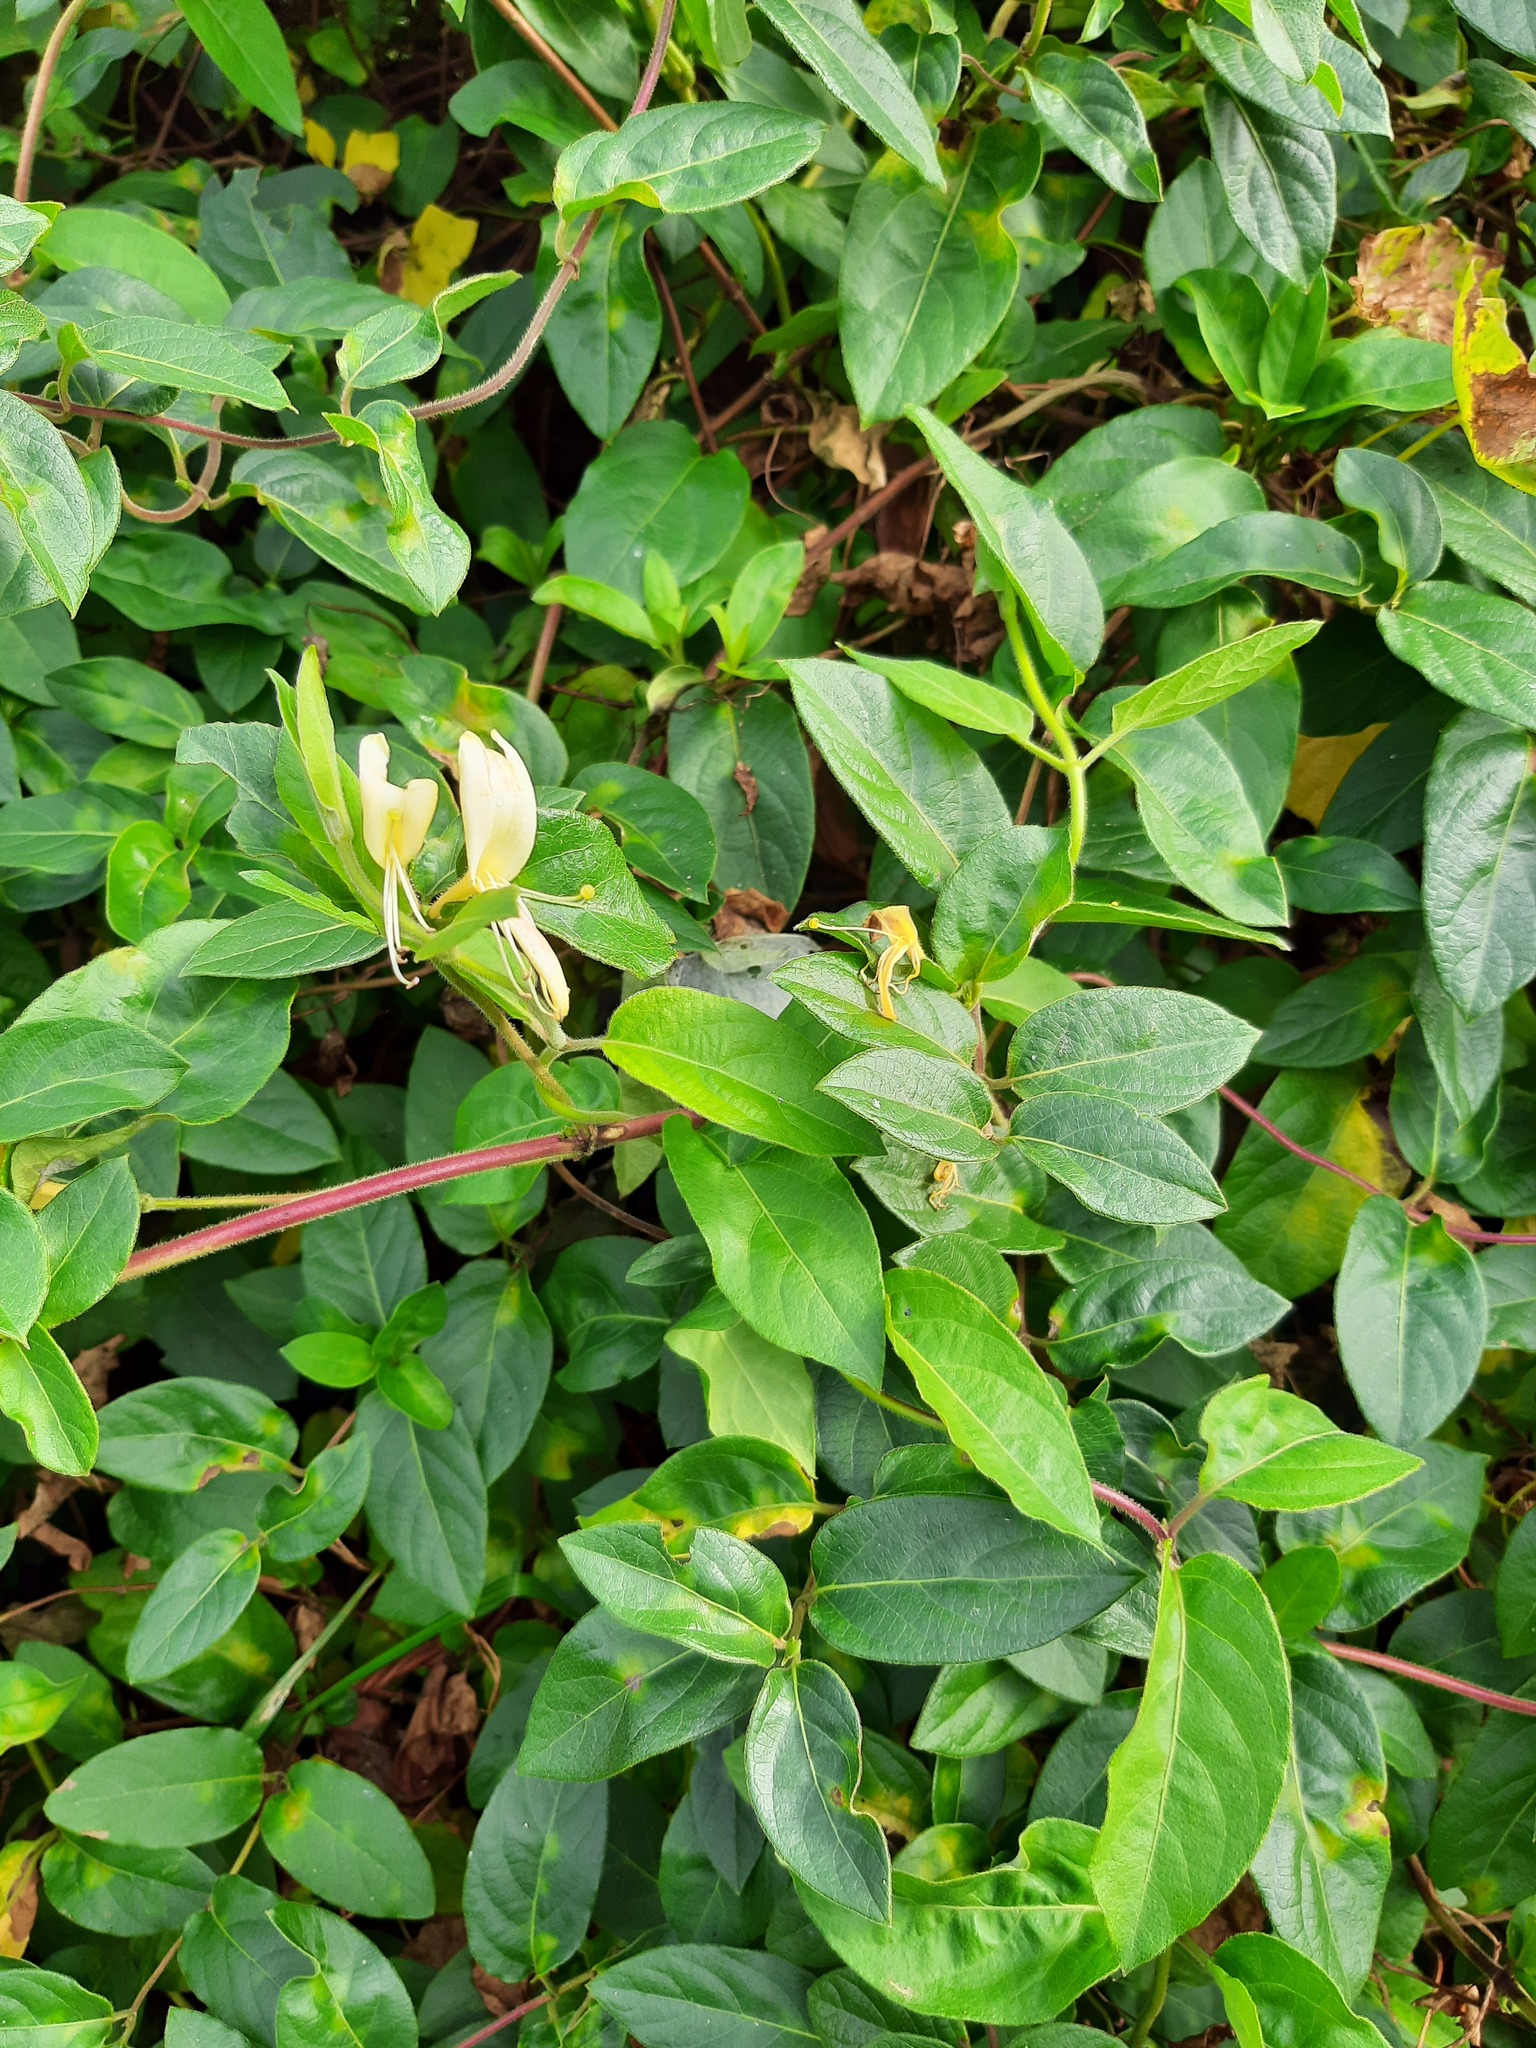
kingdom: Plantae
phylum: Tracheophyta
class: Magnoliopsida
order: Dipsacales
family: Caprifoliaceae
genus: Lonicera
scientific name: Lonicera japonica
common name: Japanese honeysuckle
